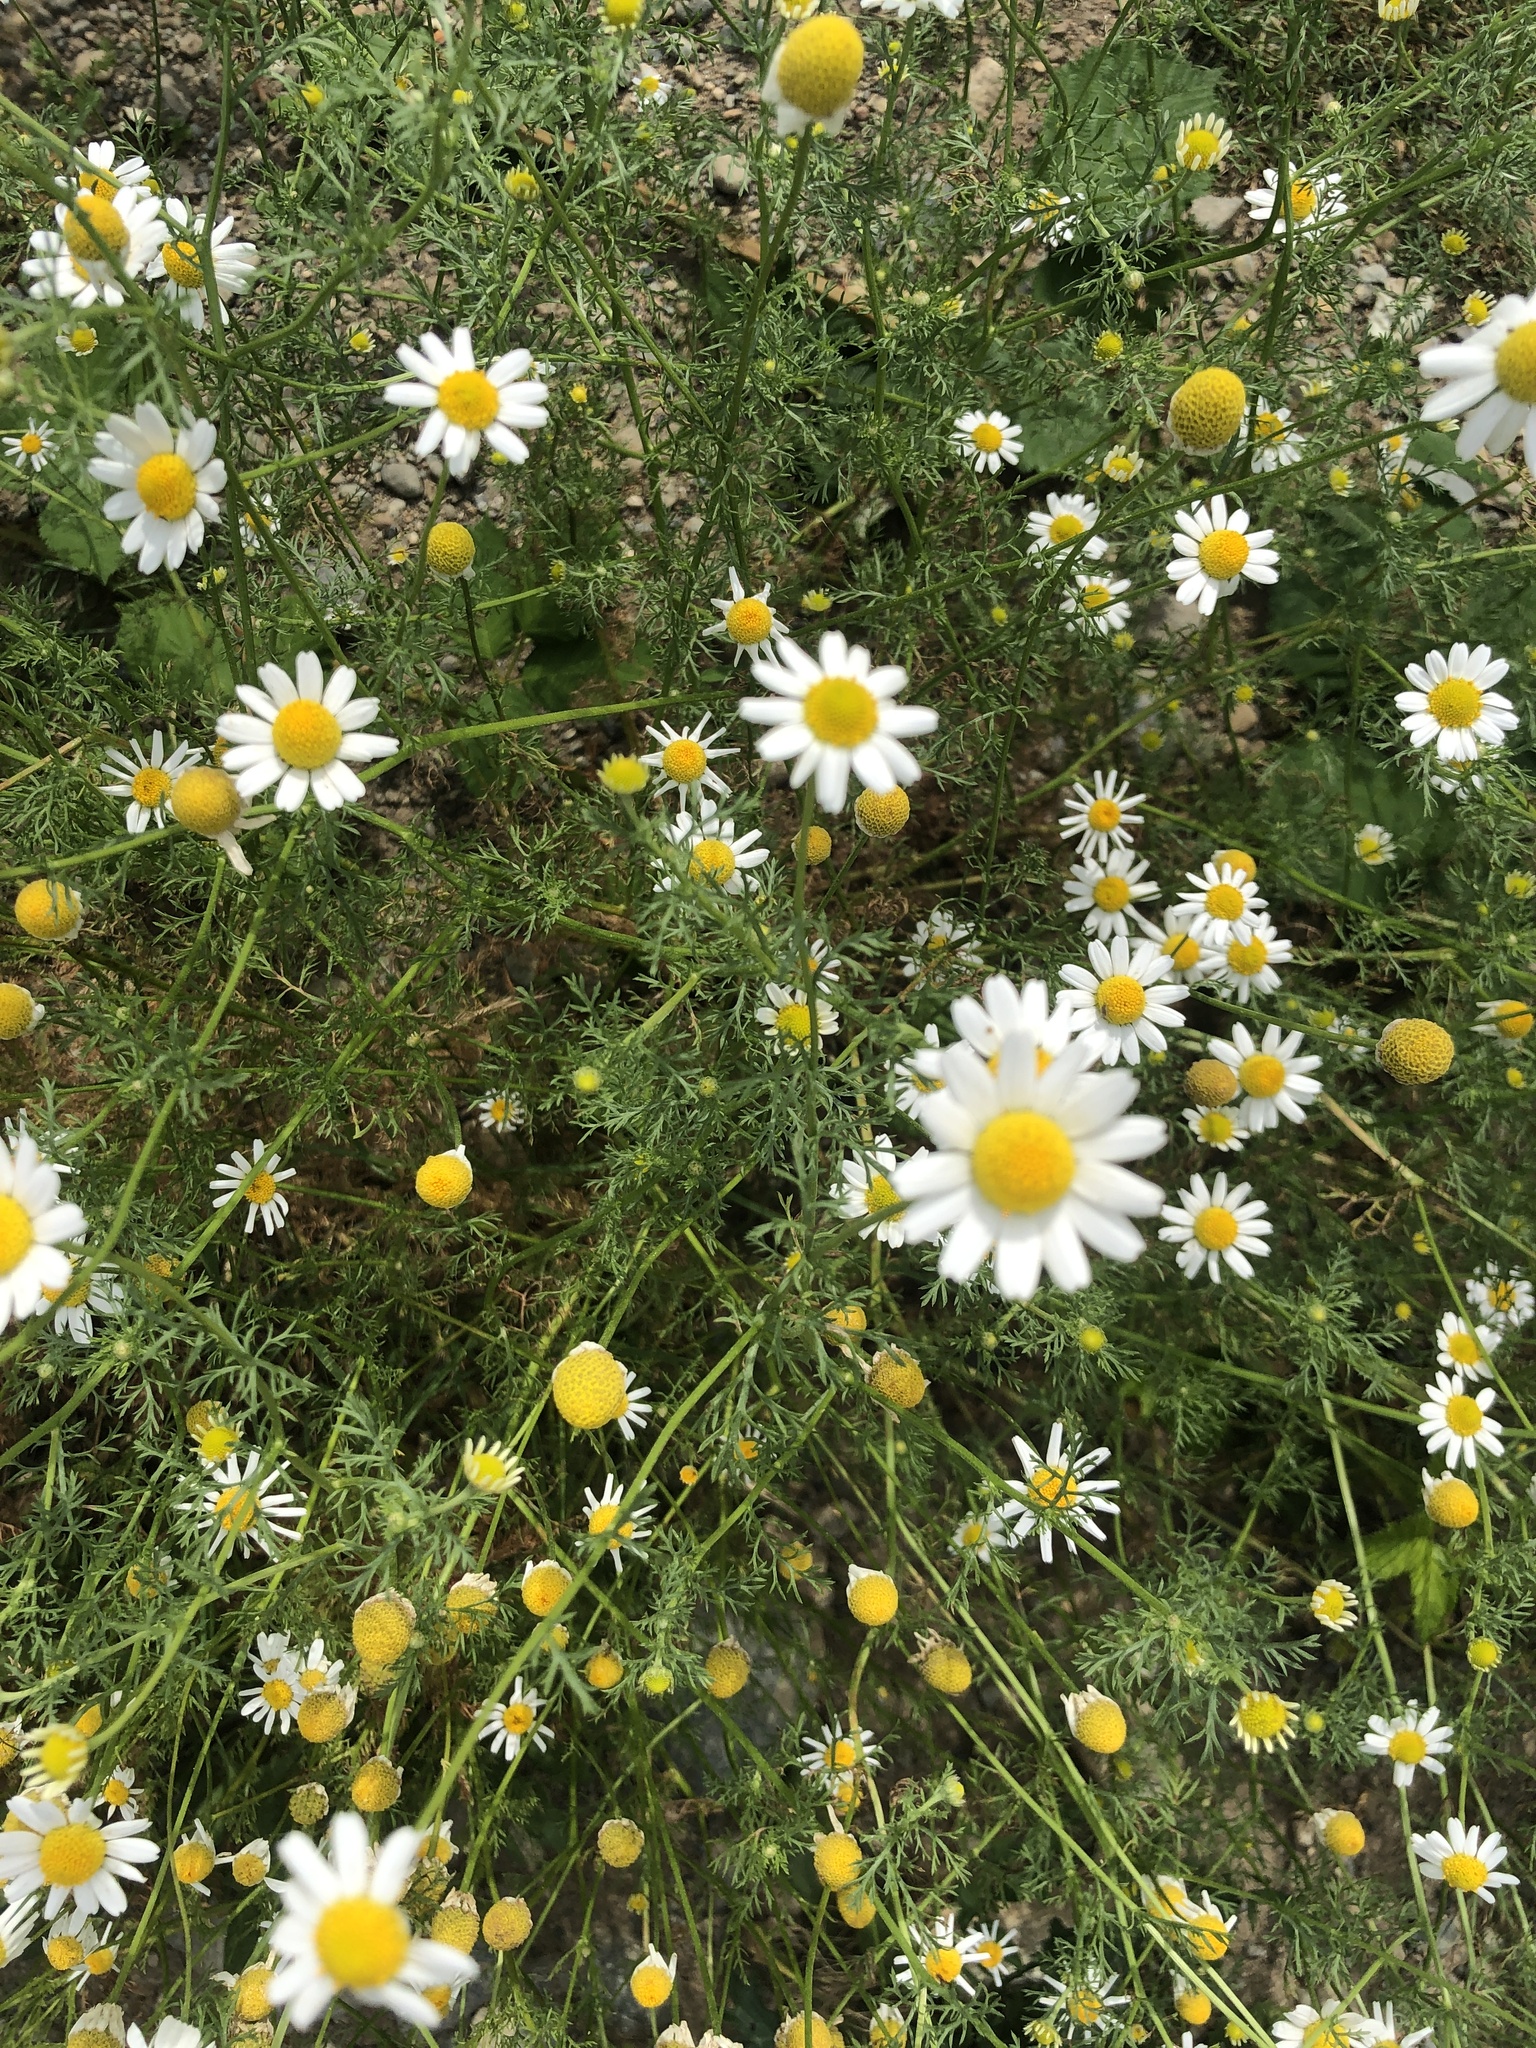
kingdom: Plantae
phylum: Tracheophyta
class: Magnoliopsida
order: Asterales
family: Asteraceae
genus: Matricaria
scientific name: Matricaria chamomilla
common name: Scented mayweed
